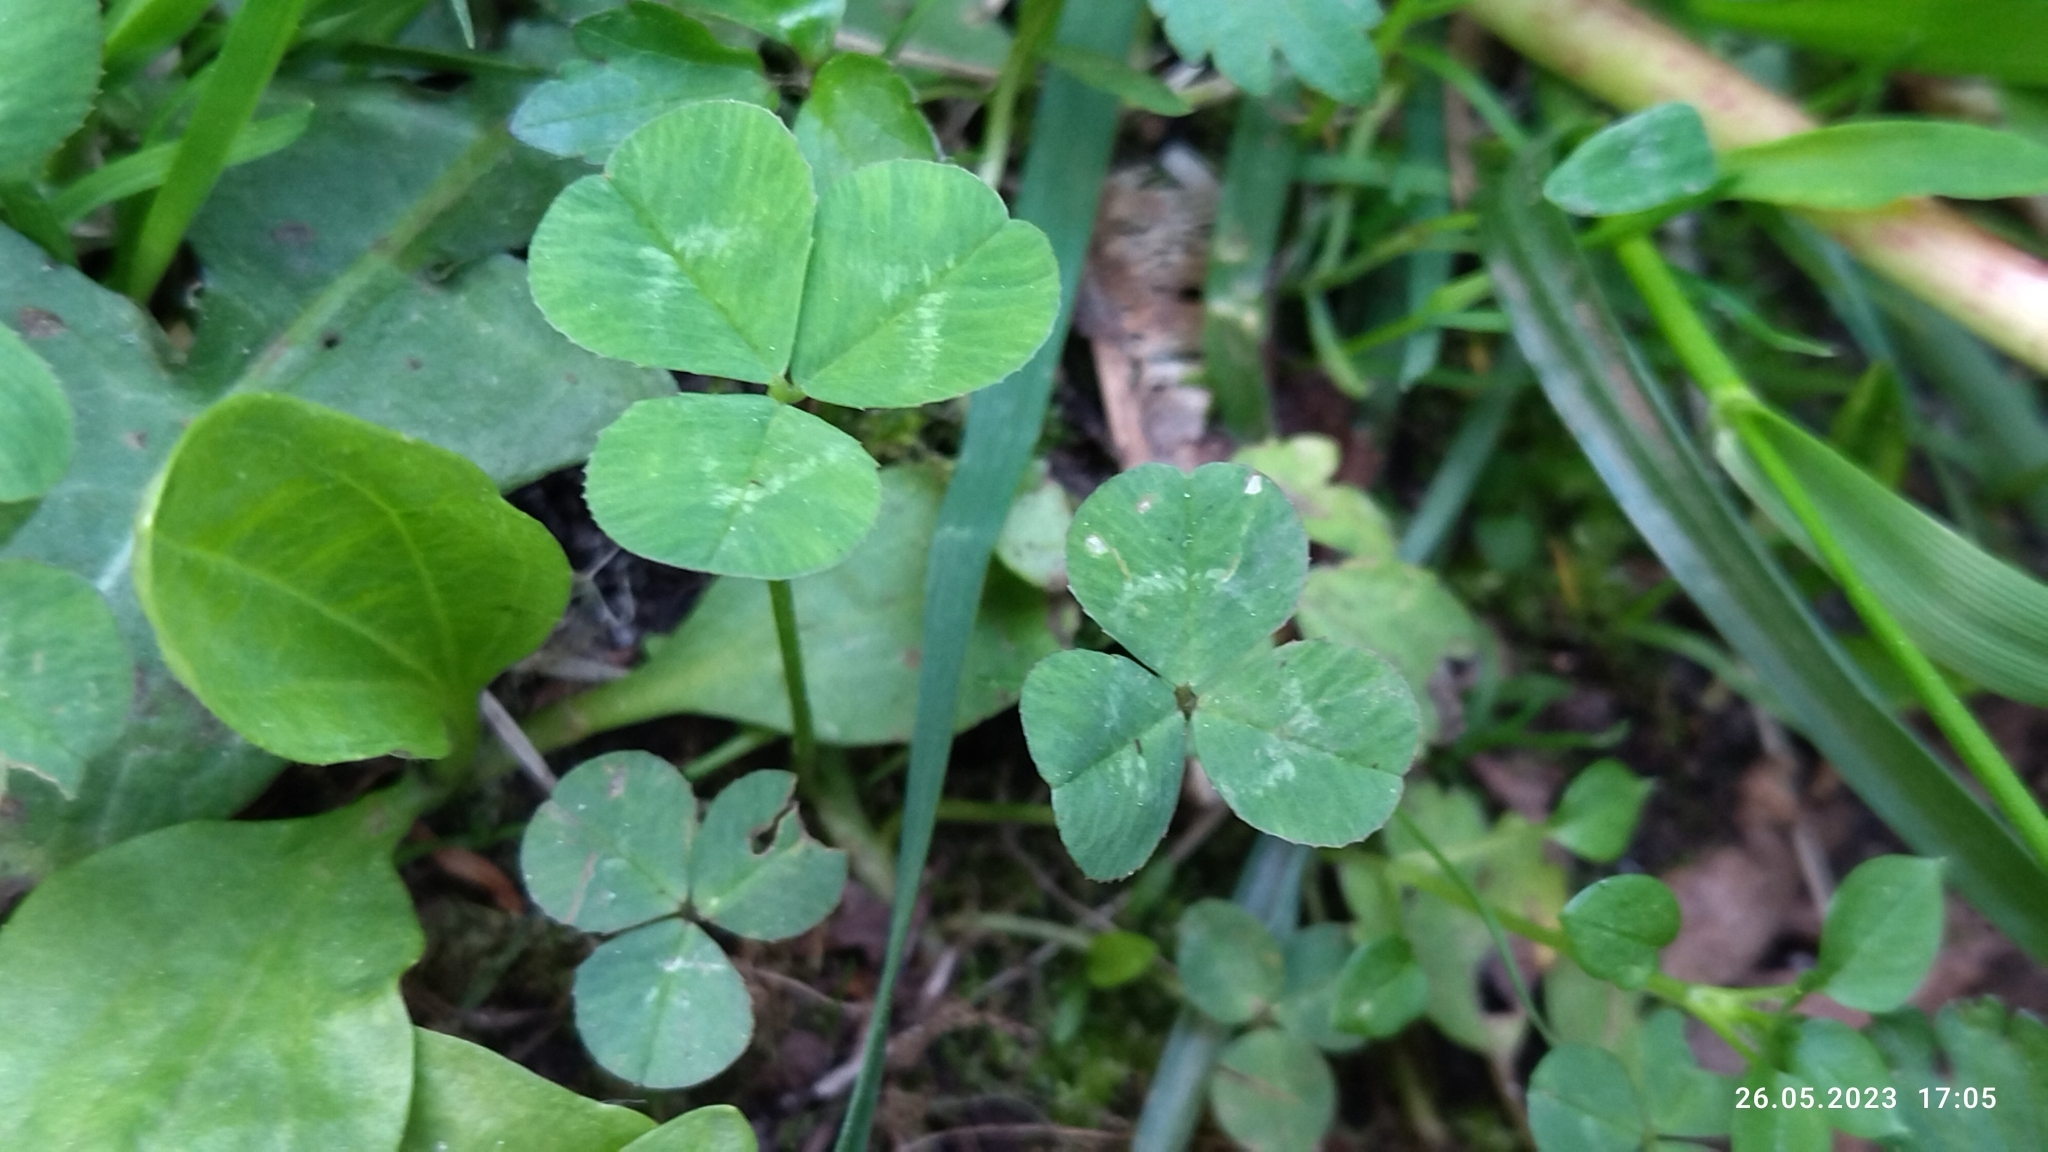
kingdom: Plantae
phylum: Tracheophyta
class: Magnoliopsida
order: Fabales
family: Fabaceae
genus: Trifolium
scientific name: Trifolium repens
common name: White clover
